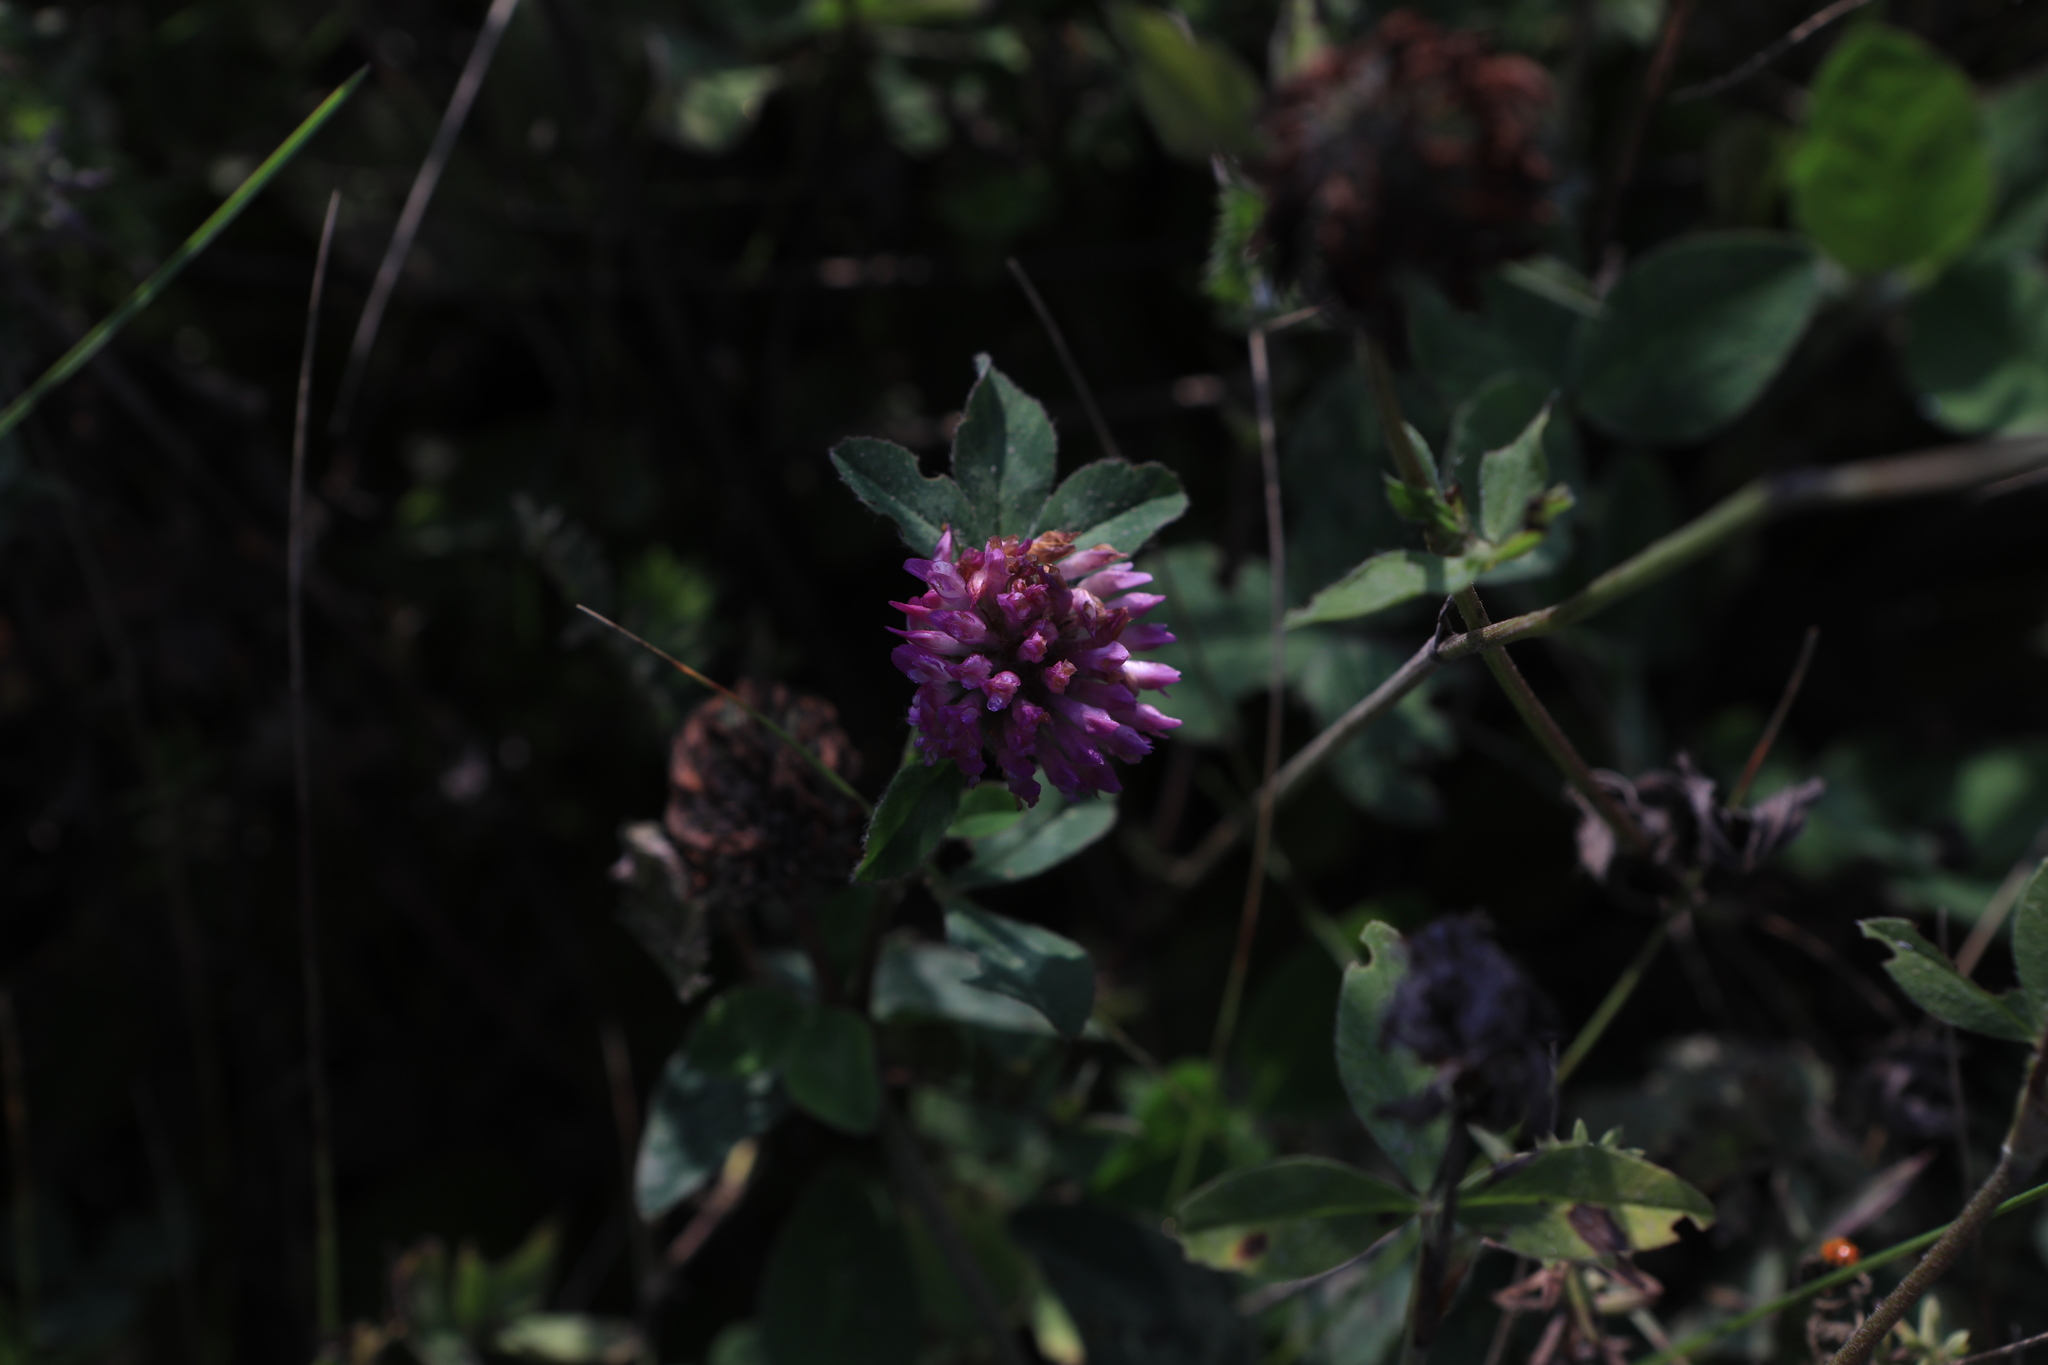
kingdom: Plantae
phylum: Tracheophyta
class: Magnoliopsida
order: Fabales
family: Fabaceae
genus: Trifolium
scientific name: Trifolium pratense
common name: Red clover
